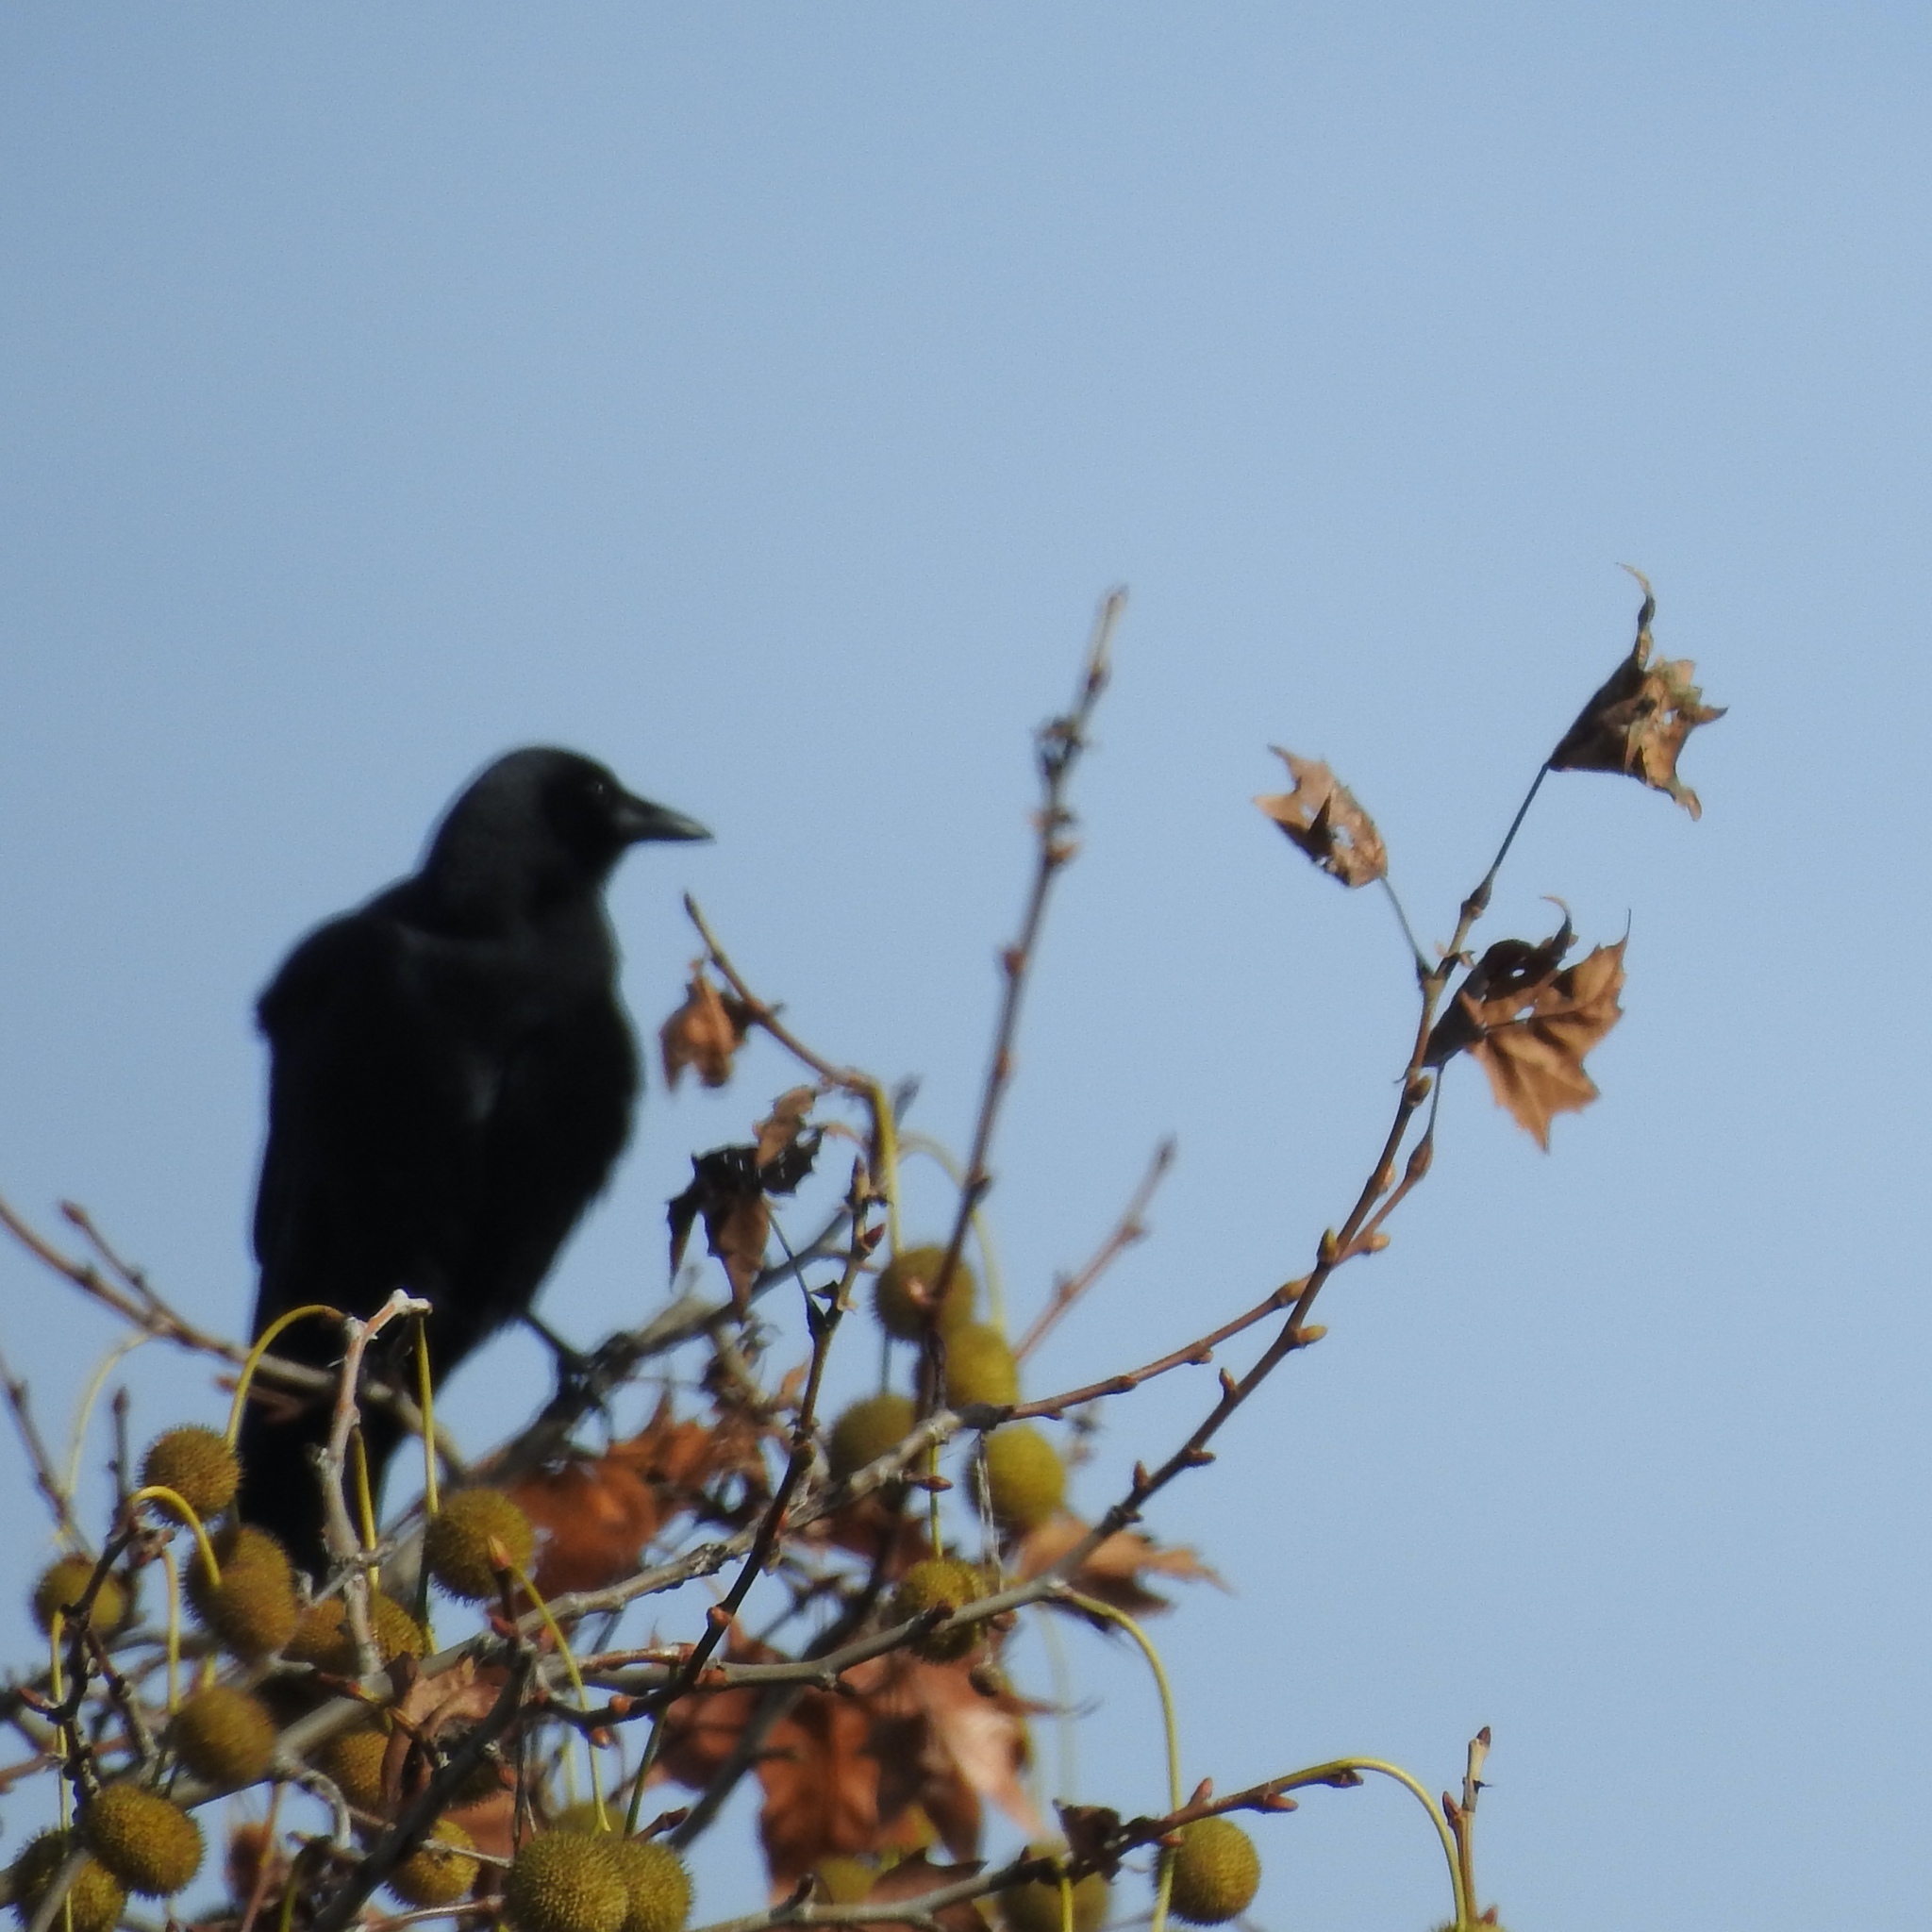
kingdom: Animalia
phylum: Chordata
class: Aves
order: Passeriformes
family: Corvidae
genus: Corvus
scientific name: Corvus brachyrhynchos
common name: American crow
